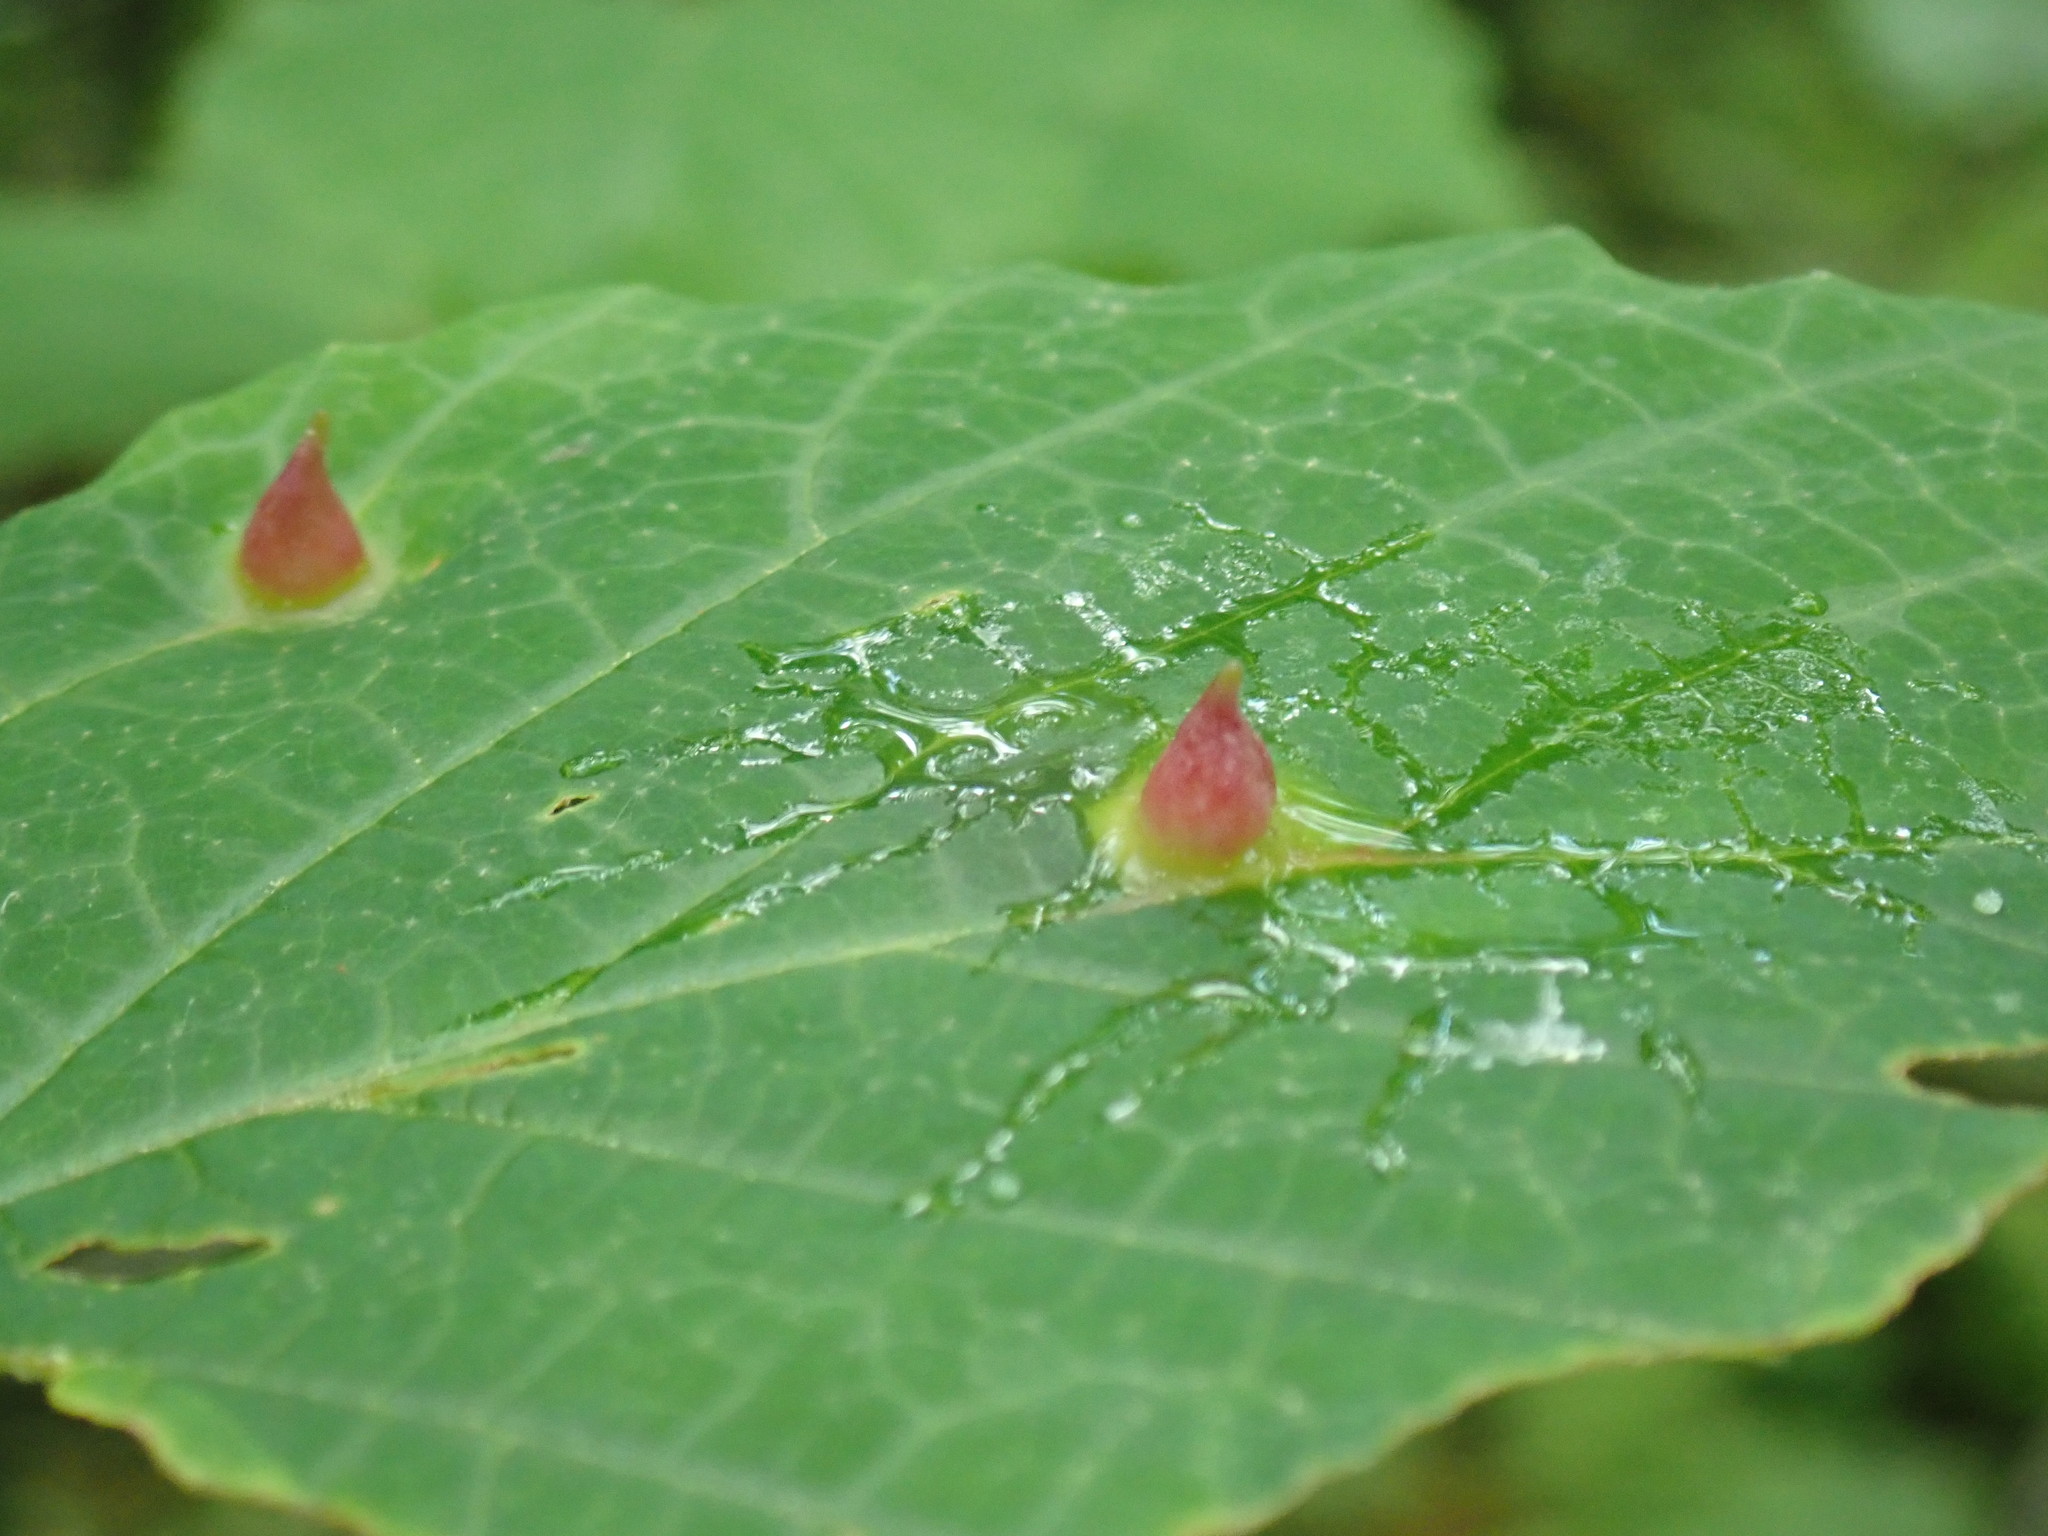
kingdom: Animalia
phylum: Arthropoda
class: Insecta
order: Hemiptera
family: Aphididae
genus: Hormaphis
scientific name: Hormaphis hamamelidis
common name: Witch-hazel cone gall aphid
